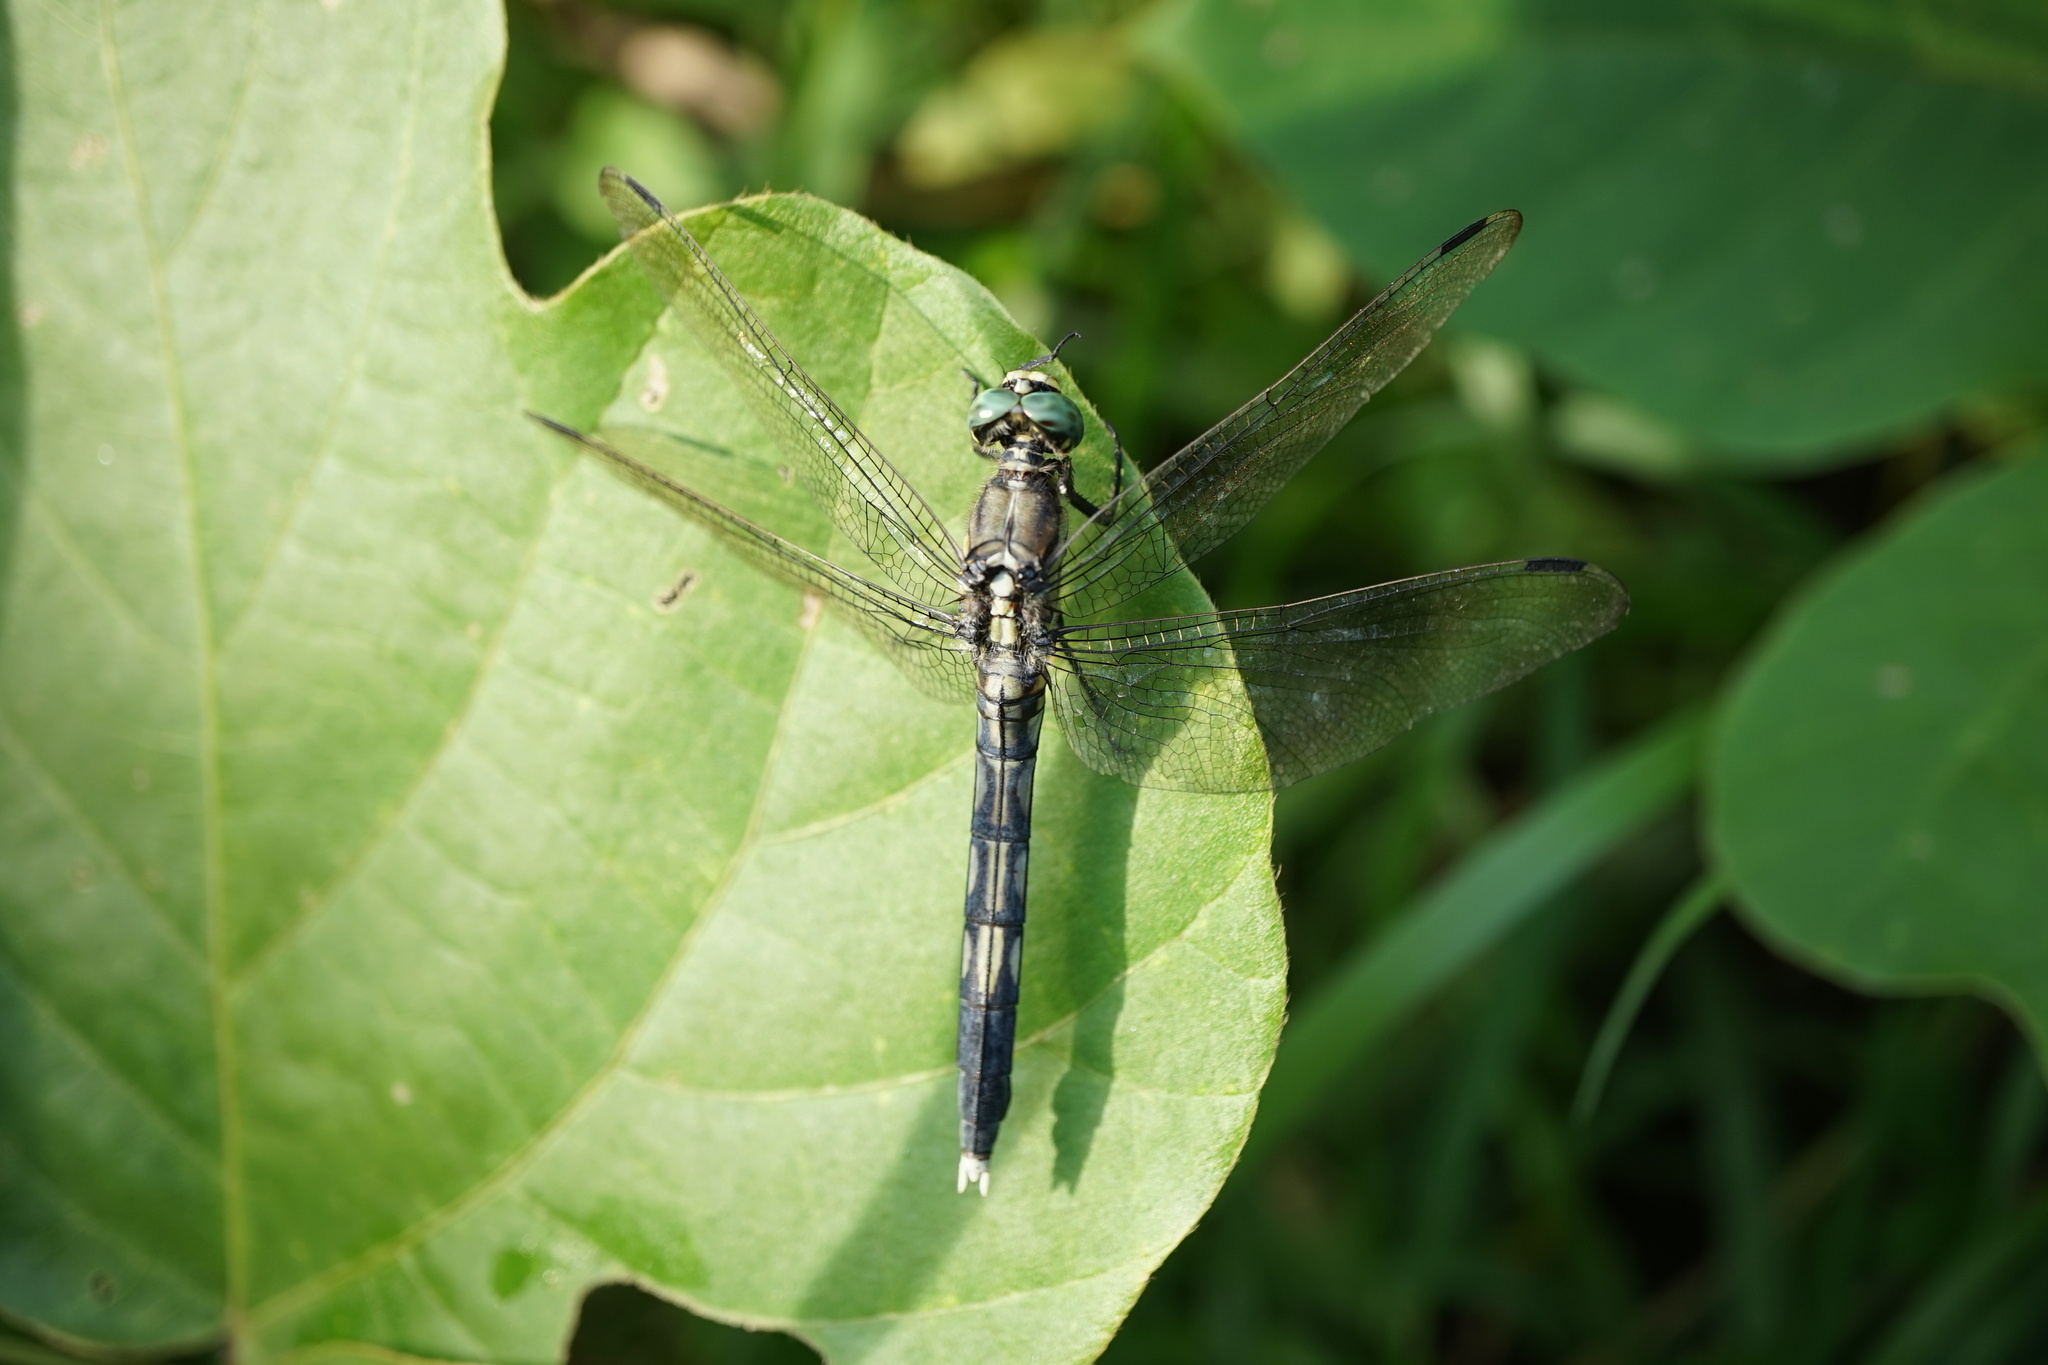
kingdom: Animalia
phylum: Arthropoda
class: Insecta
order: Odonata
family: Libellulidae
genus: Orthetrum
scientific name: Orthetrum albistylum
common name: White-tailed skimmer
